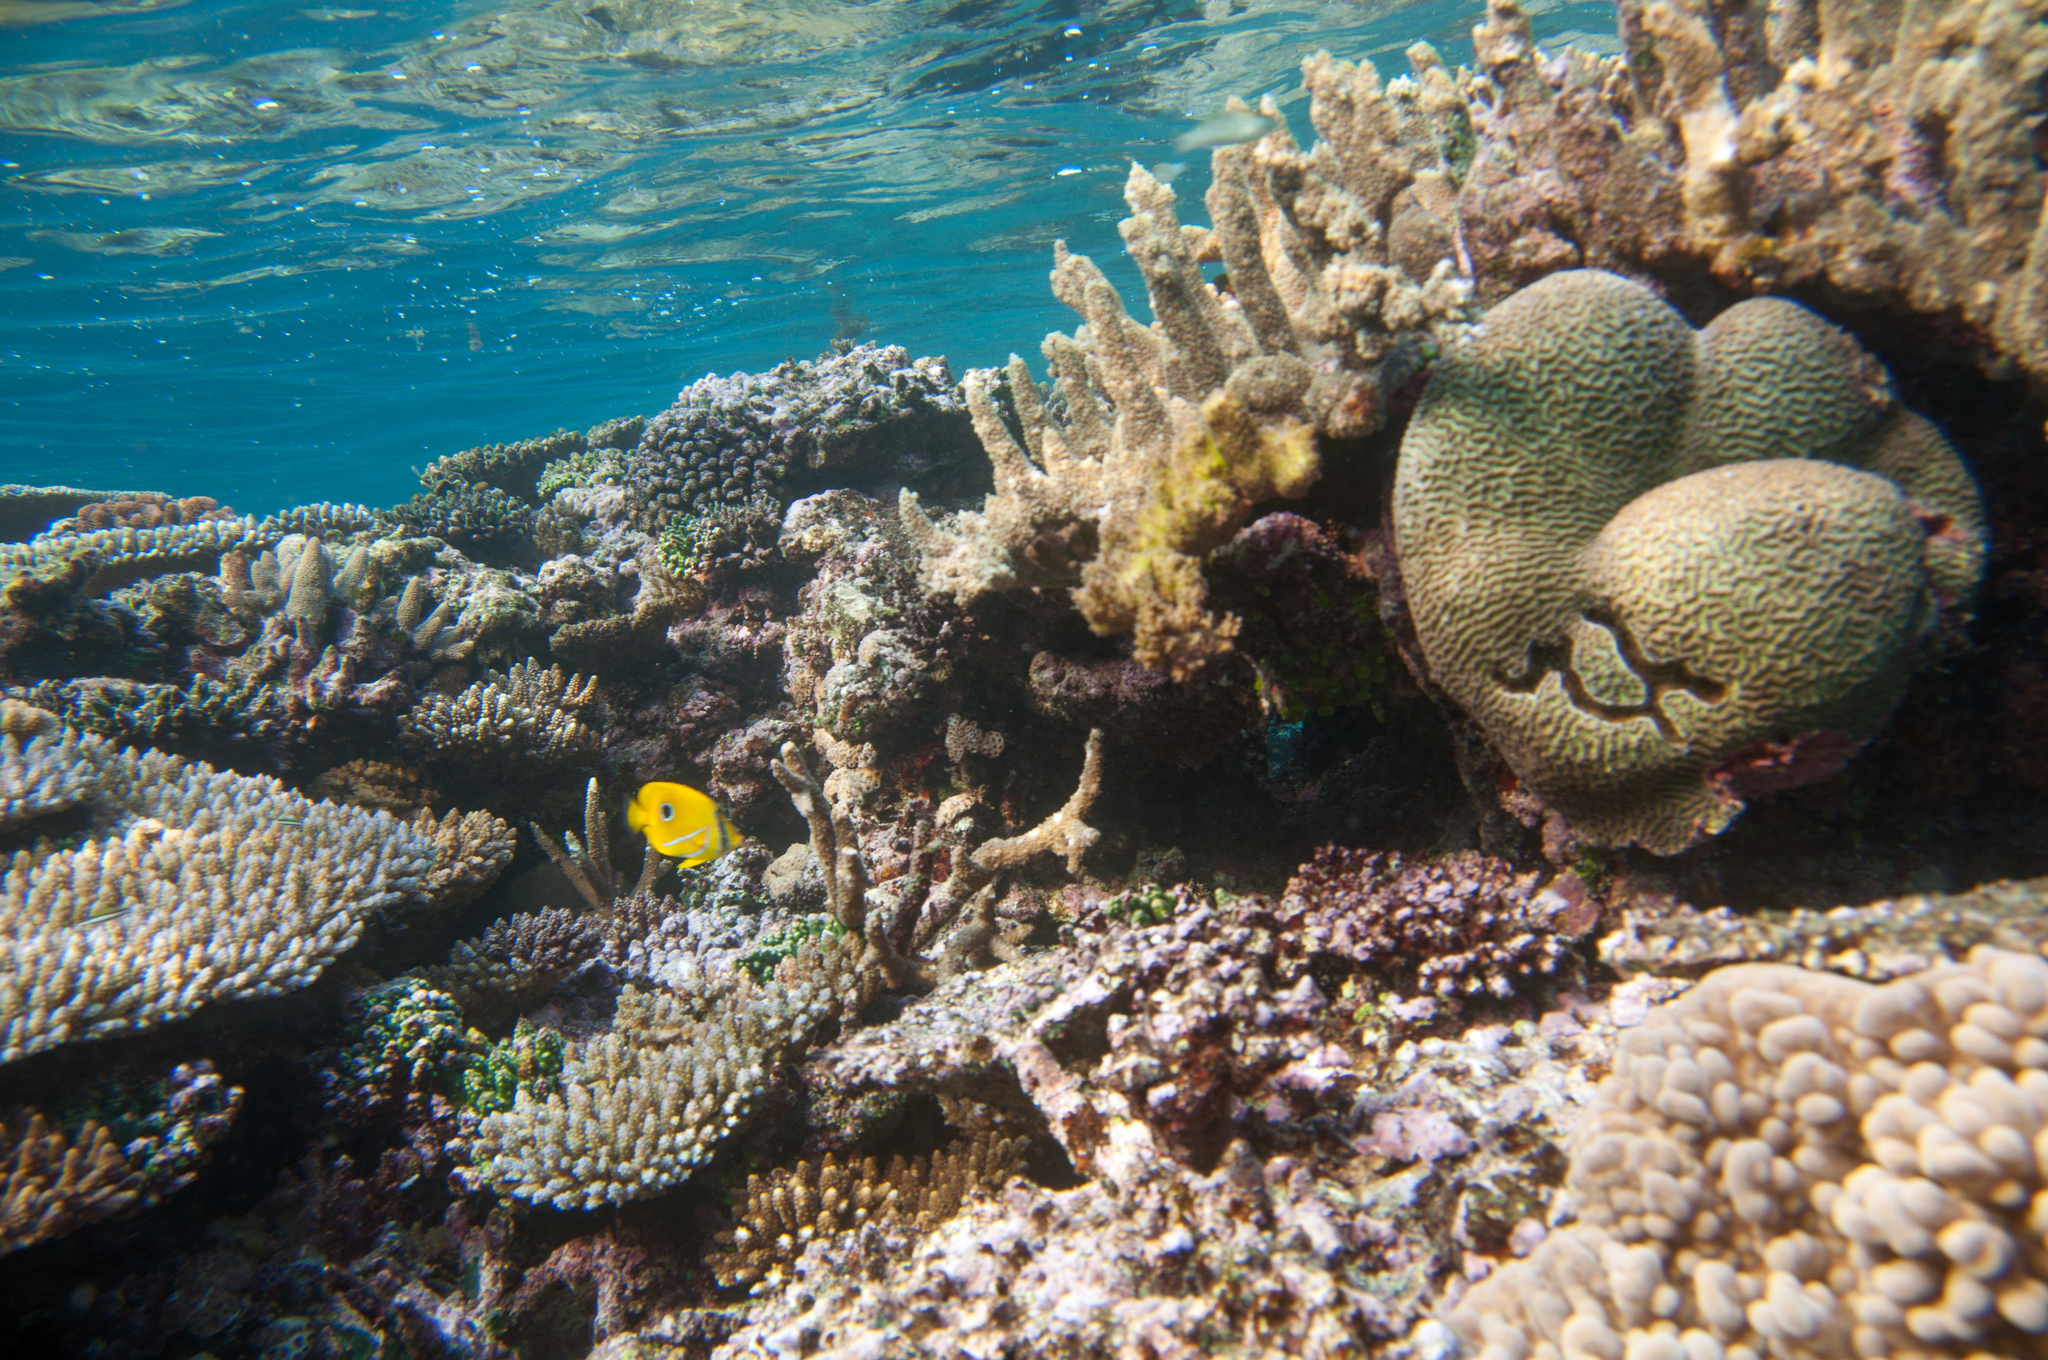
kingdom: Animalia
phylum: Chordata
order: Perciformes
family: Chaetodontidae
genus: Chaetodon
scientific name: Chaetodon bennetti
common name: Bennett's butterflyfish
